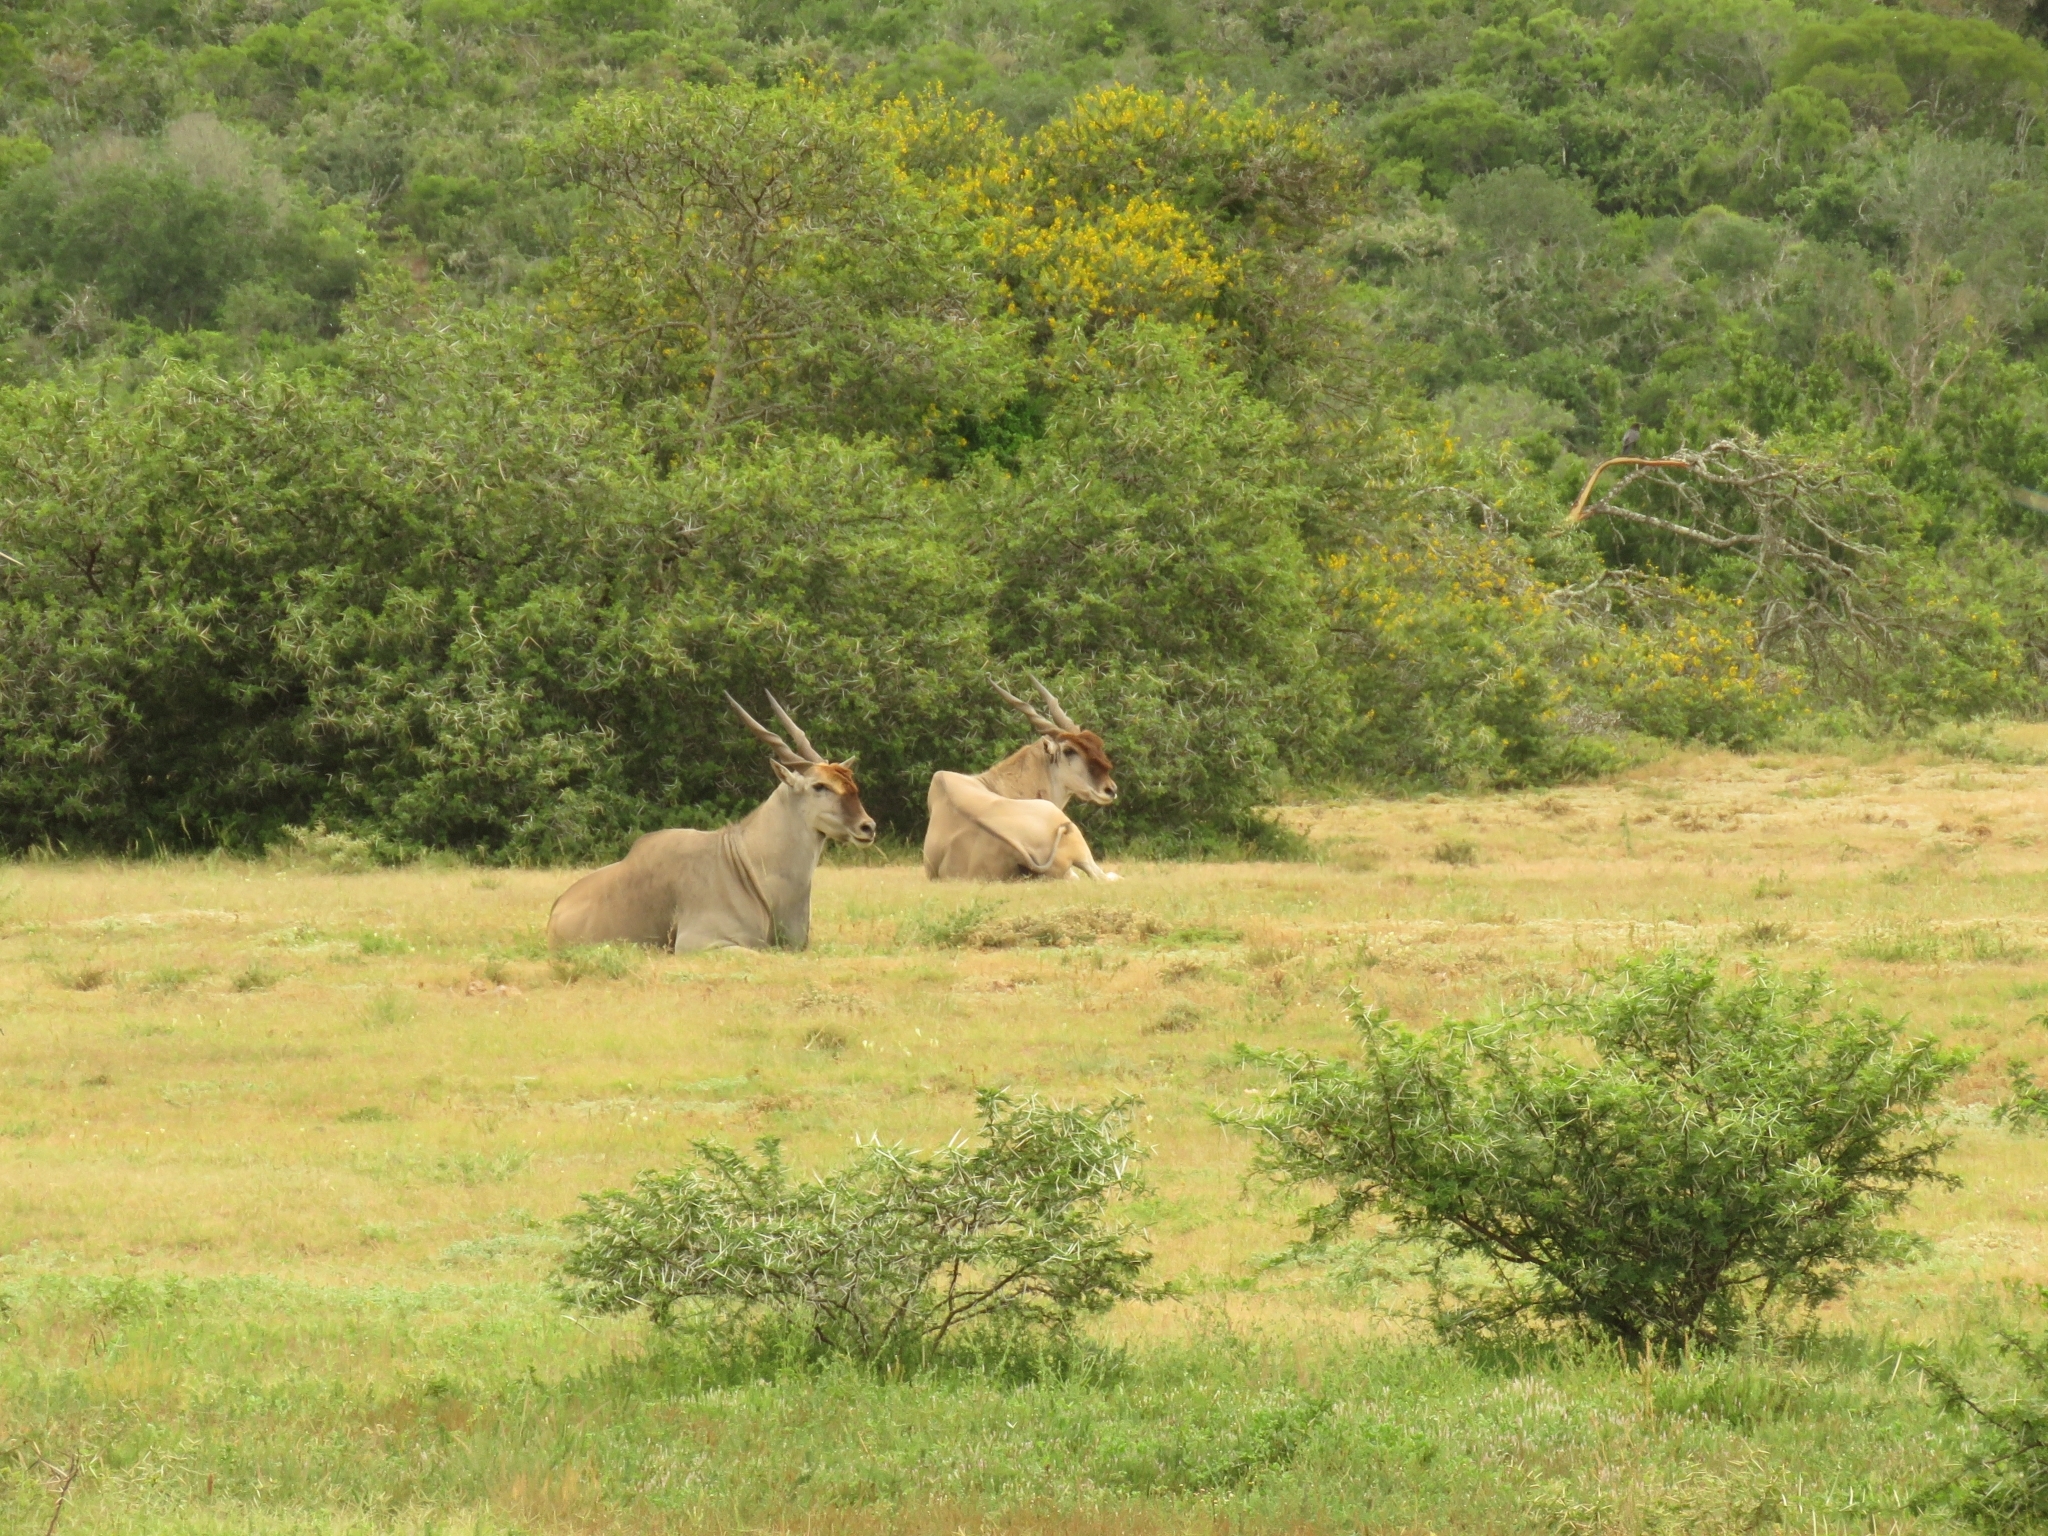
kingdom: Animalia
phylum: Chordata
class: Mammalia
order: Artiodactyla
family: Bovidae
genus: Taurotragus
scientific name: Taurotragus oryx
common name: Common eland
